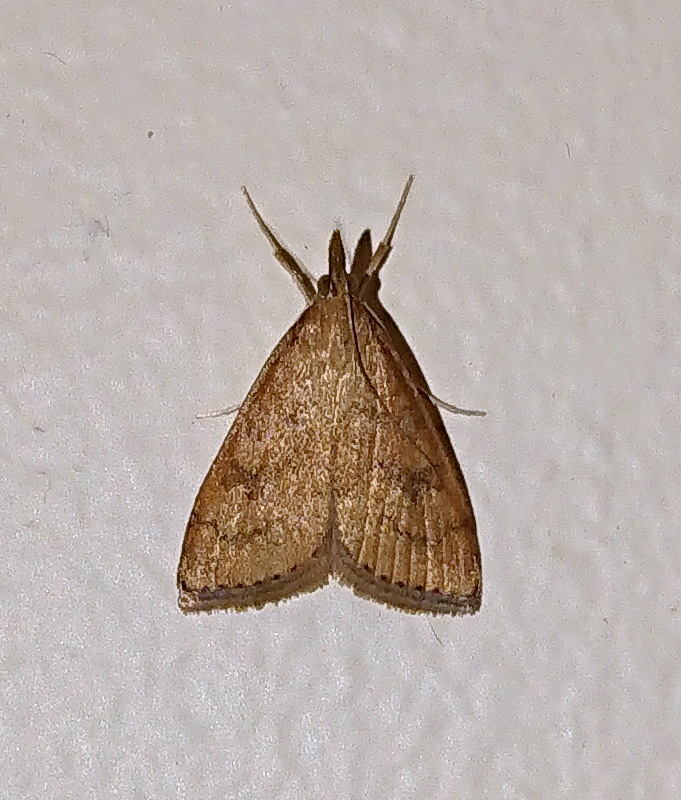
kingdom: Animalia
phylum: Arthropoda
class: Insecta
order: Lepidoptera
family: Crambidae
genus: Udea
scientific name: Udea rubigalis
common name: Celery leaftier moth
